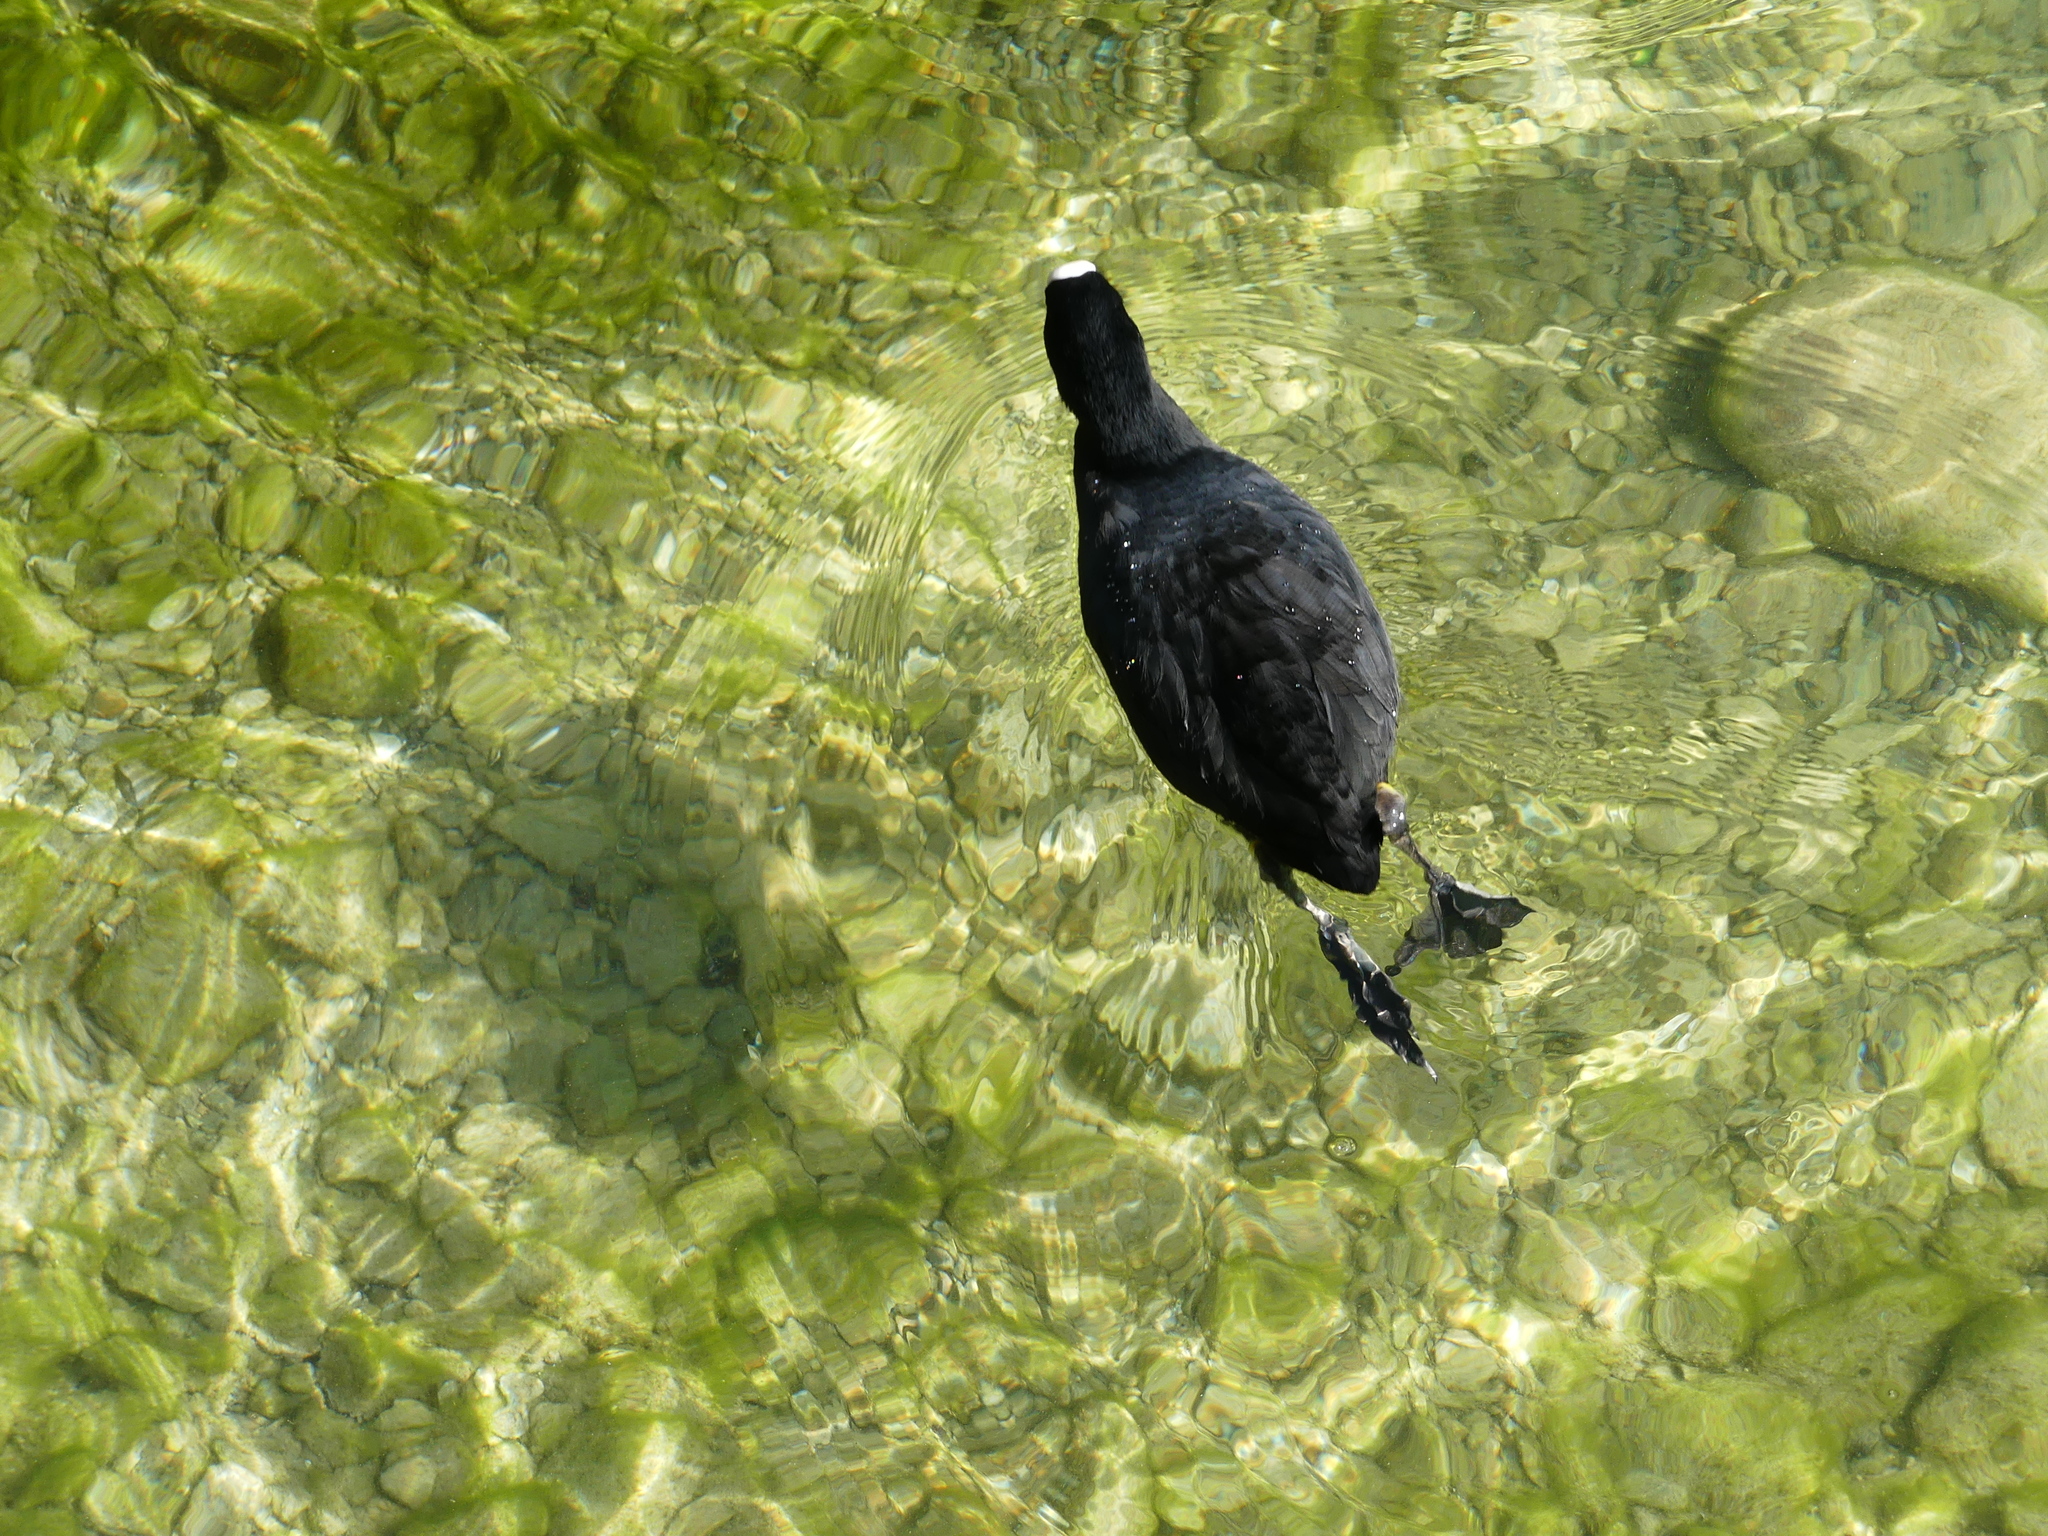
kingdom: Animalia
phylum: Chordata
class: Aves
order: Gruiformes
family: Rallidae
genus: Fulica
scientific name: Fulica atra
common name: Eurasian coot
